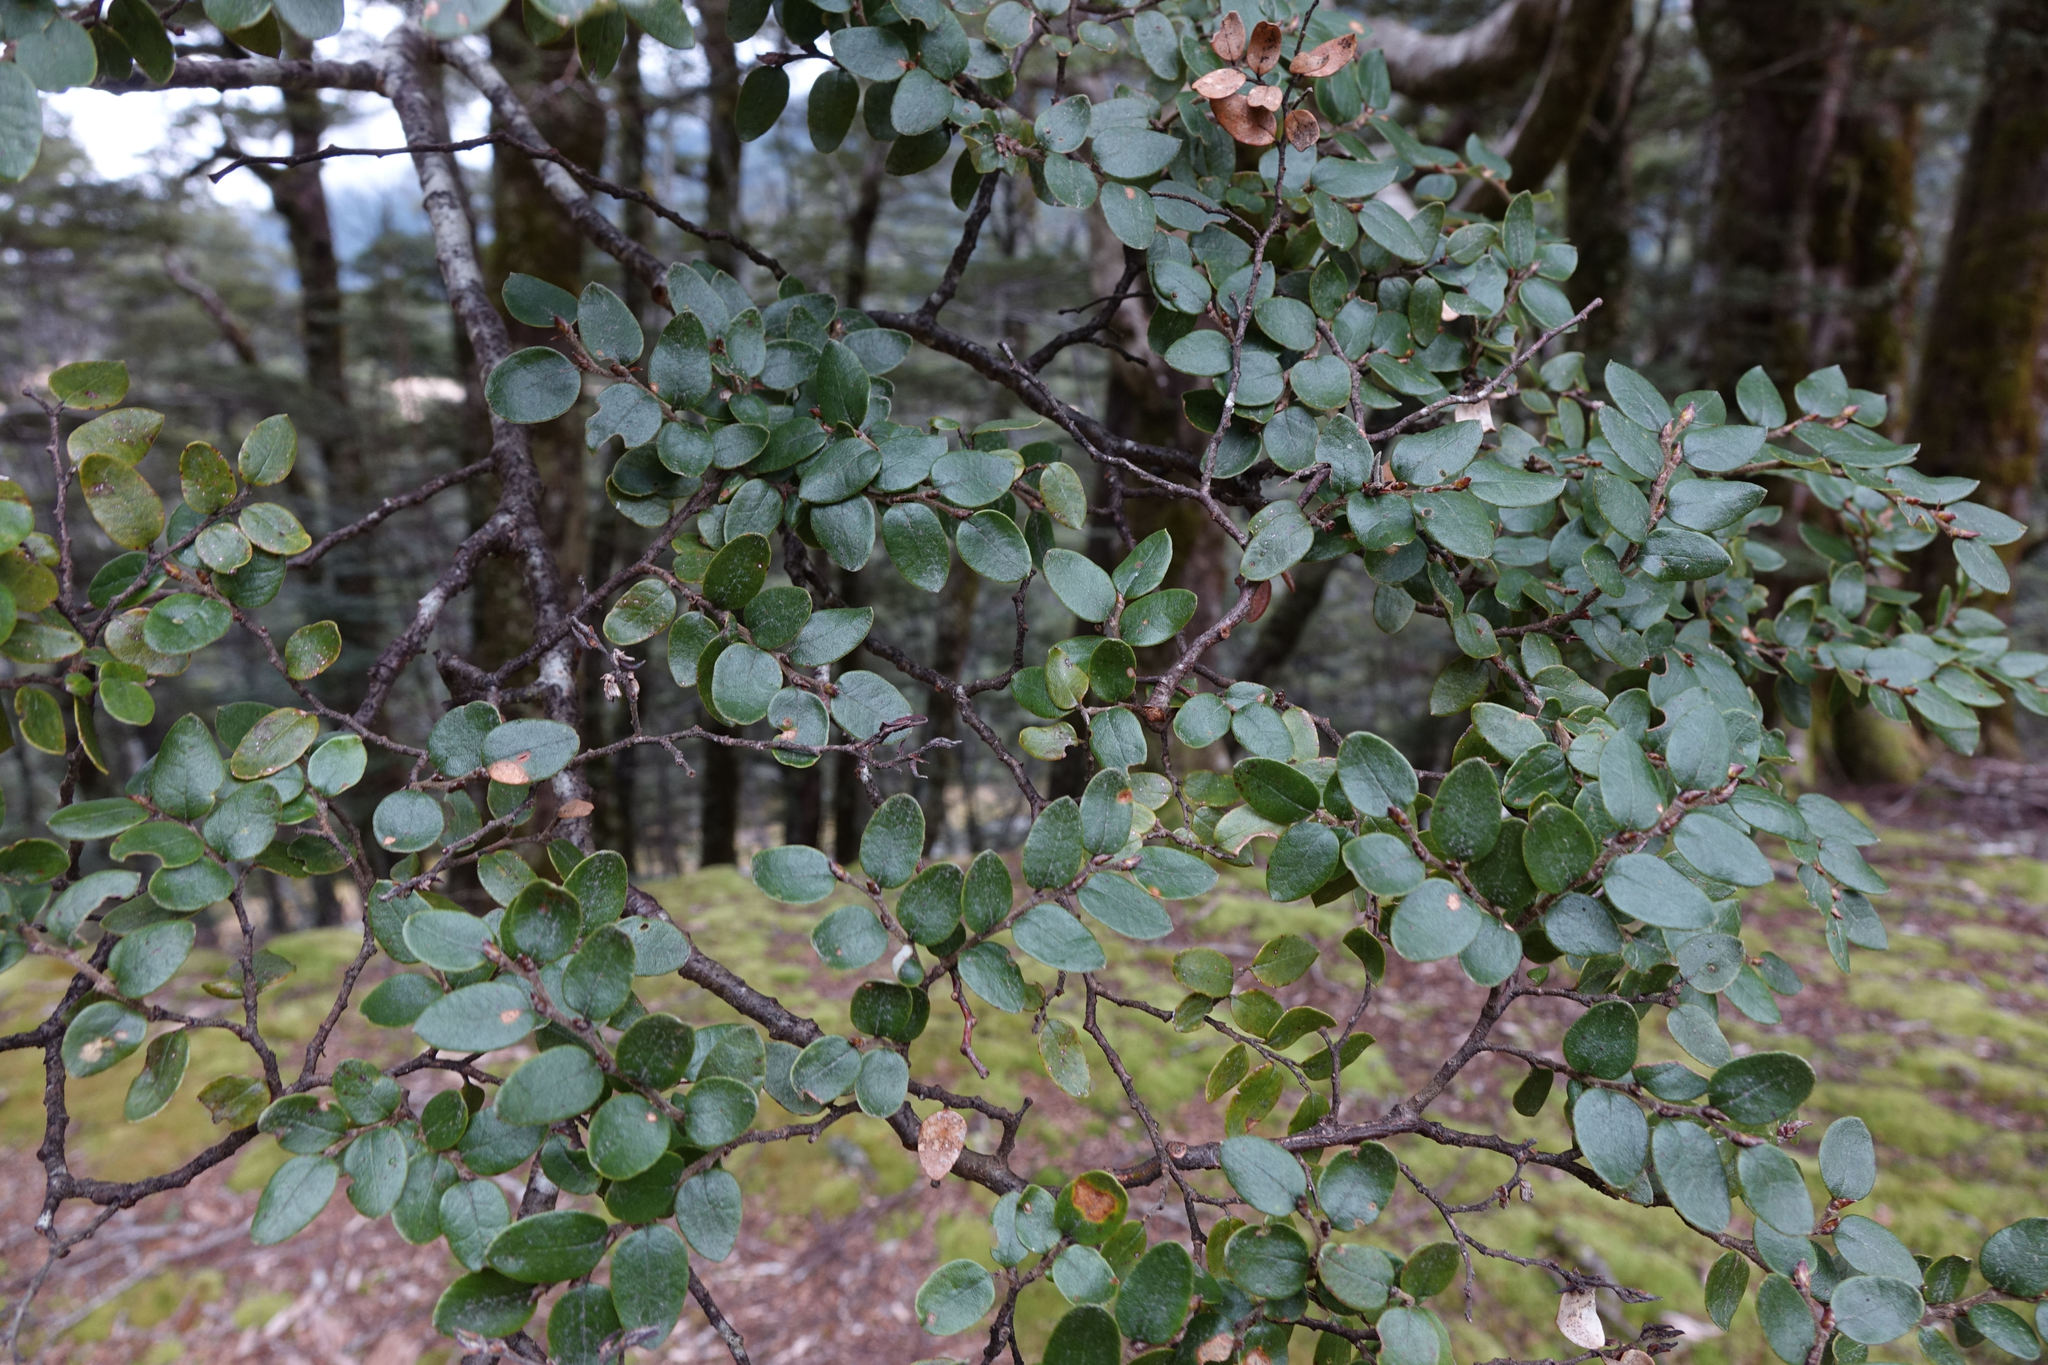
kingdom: Plantae
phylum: Tracheophyta
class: Magnoliopsida
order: Fagales
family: Nothofagaceae
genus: Nothofagus
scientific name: Nothofagus cliffortioides
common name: Mountain beech
